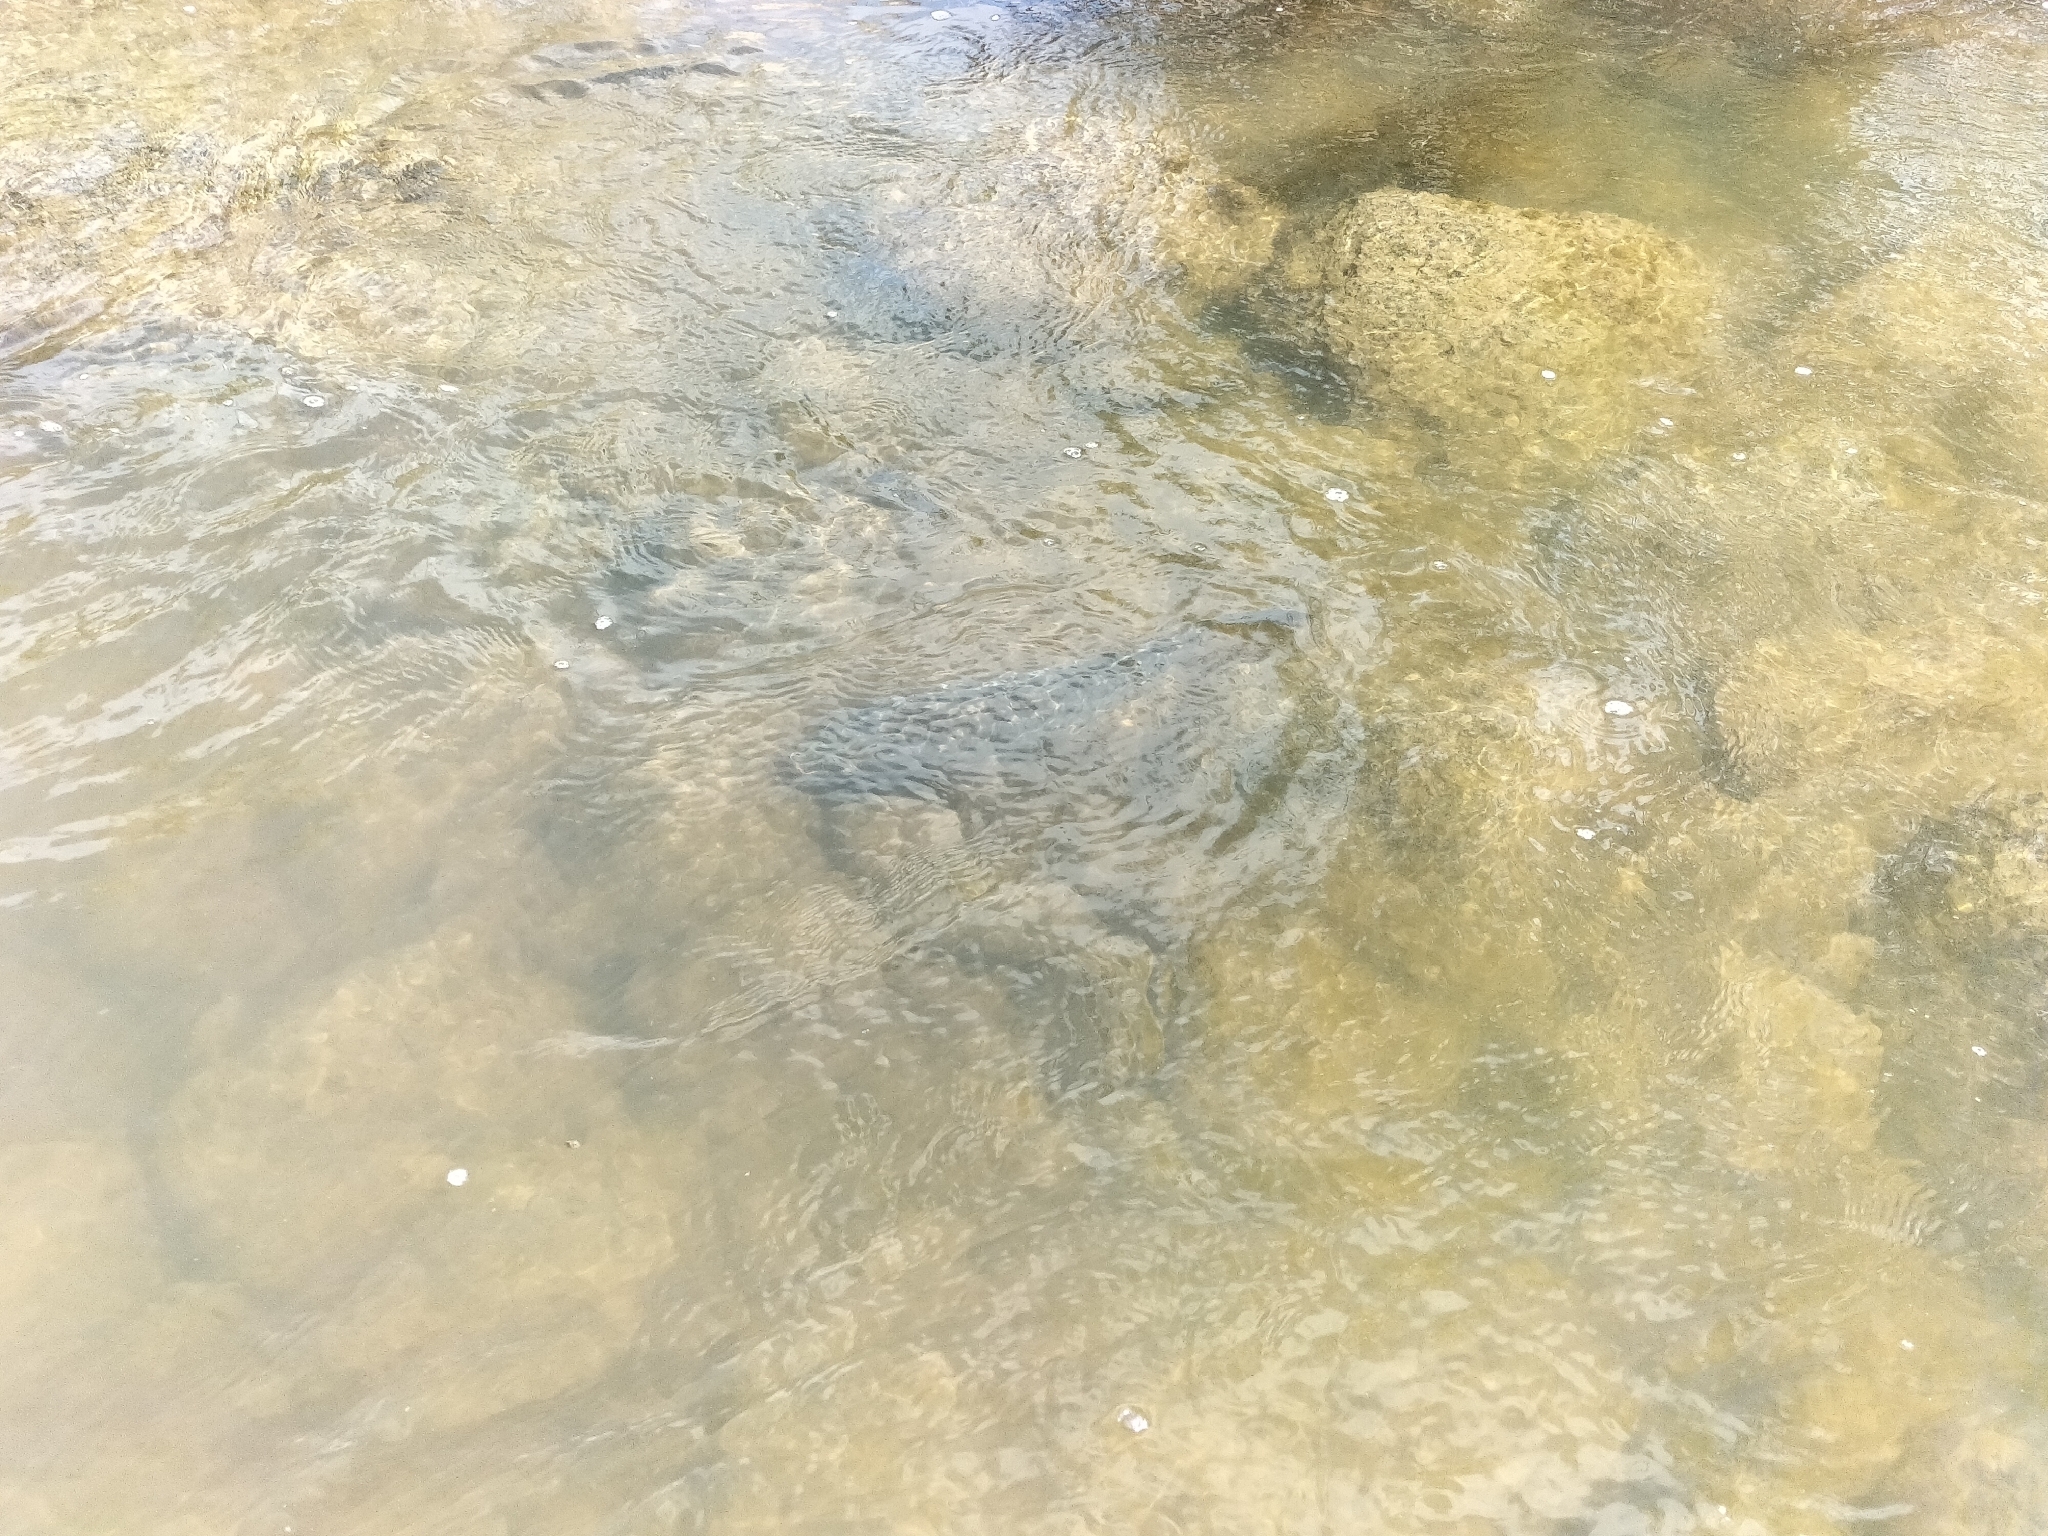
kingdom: Animalia
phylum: Chordata
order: Cypriniformes
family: Cyprinidae
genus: Cyprinus
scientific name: Cyprinus carpio
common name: Common carp
